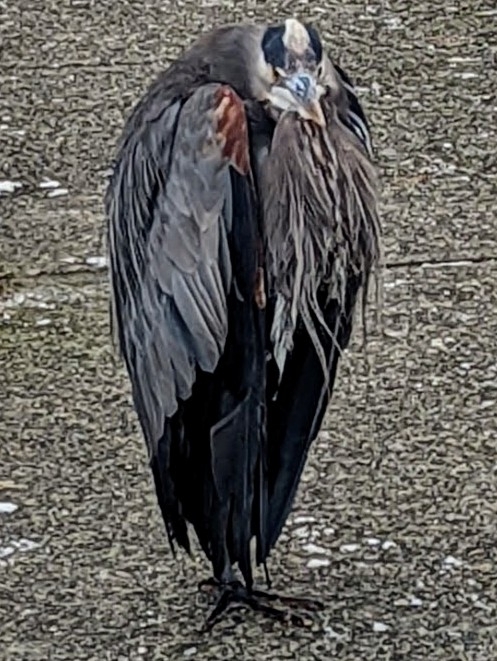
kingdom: Animalia
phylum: Chordata
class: Aves
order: Pelecaniformes
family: Ardeidae
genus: Ardea
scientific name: Ardea herodias
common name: Great blue heron
